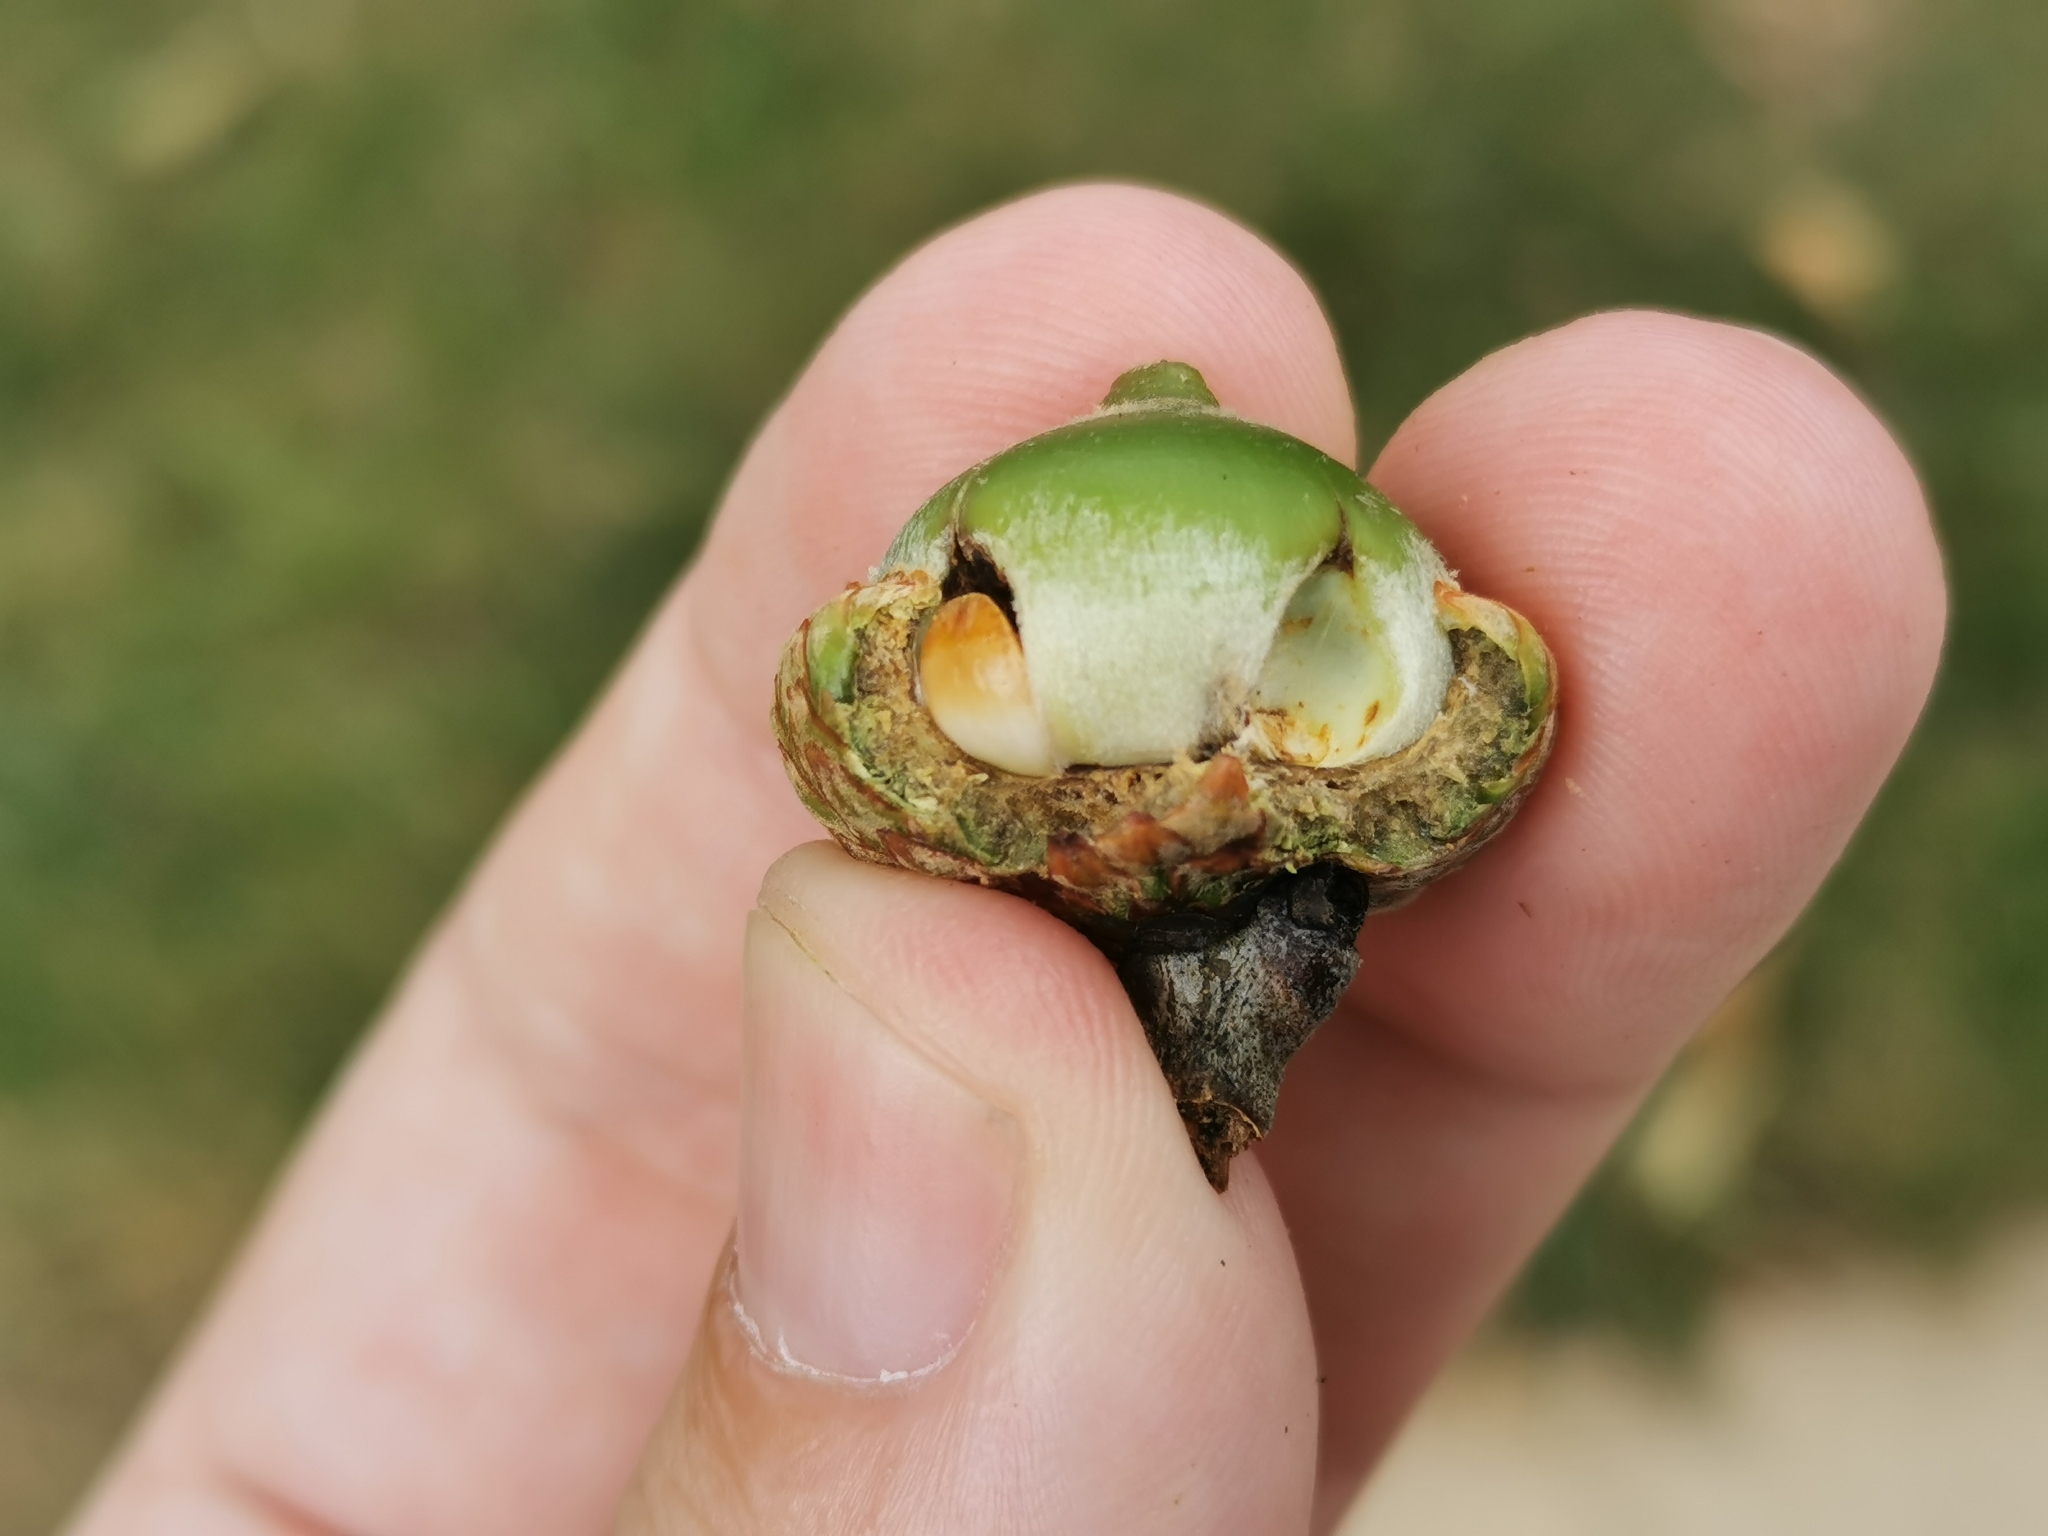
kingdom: Animalia
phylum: Arthropoda
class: Insecta
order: Hymenoptera
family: Cynipidae
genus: Callirhytis
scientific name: Callirhytis
